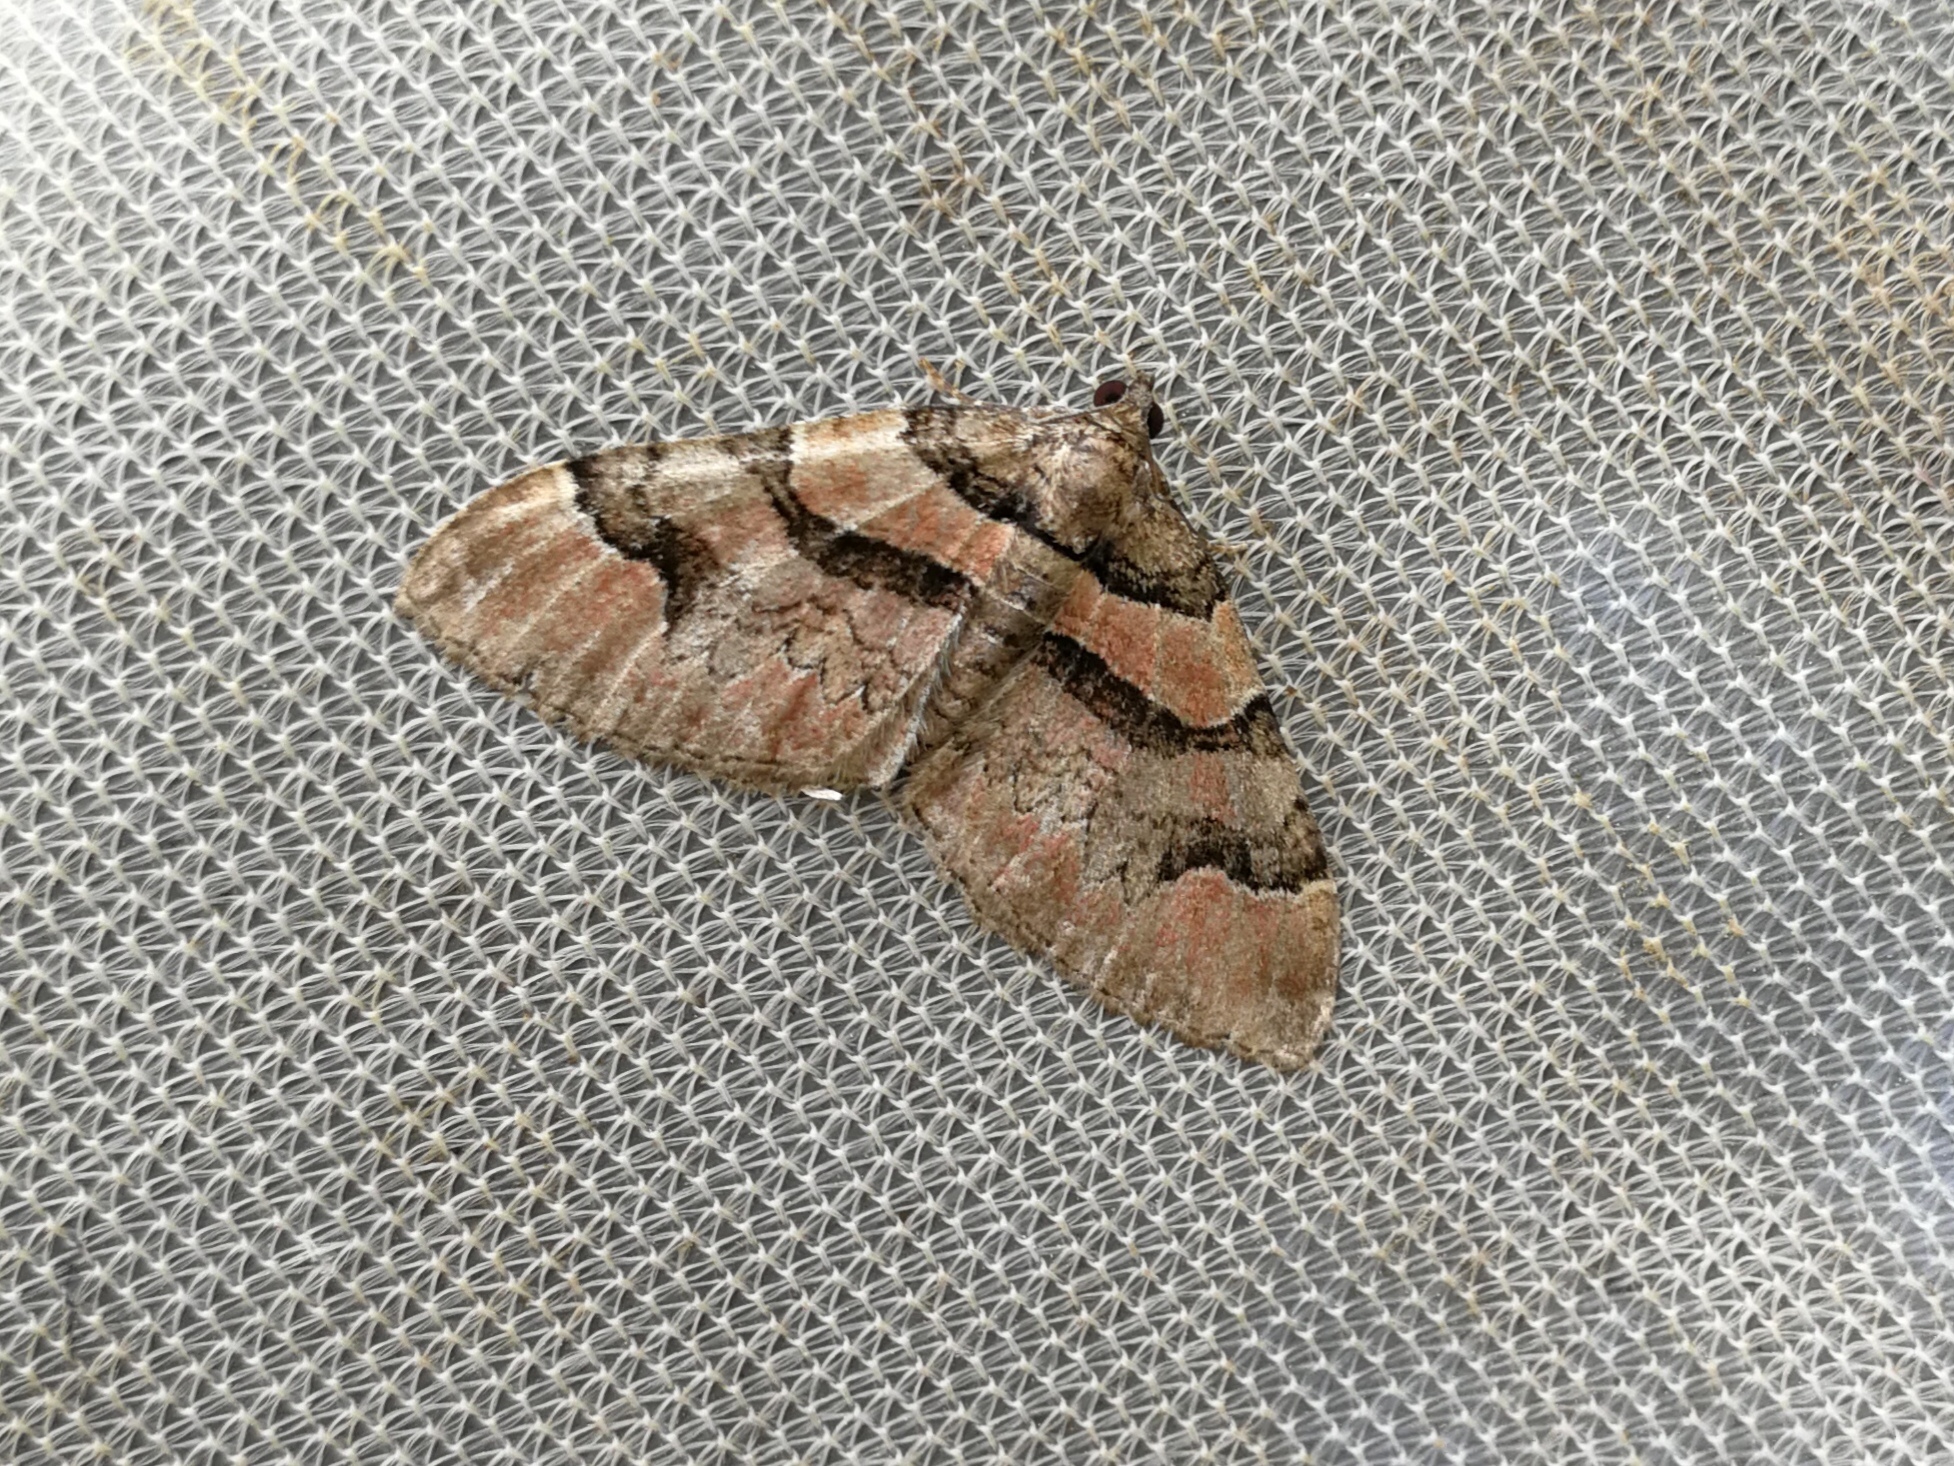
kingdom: Animalia
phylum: Arthropoda
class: Insecta
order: Lepidoptera
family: Geometridae
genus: Catarhoe
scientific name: Catarhoe rubidata
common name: Ruddy carpet
